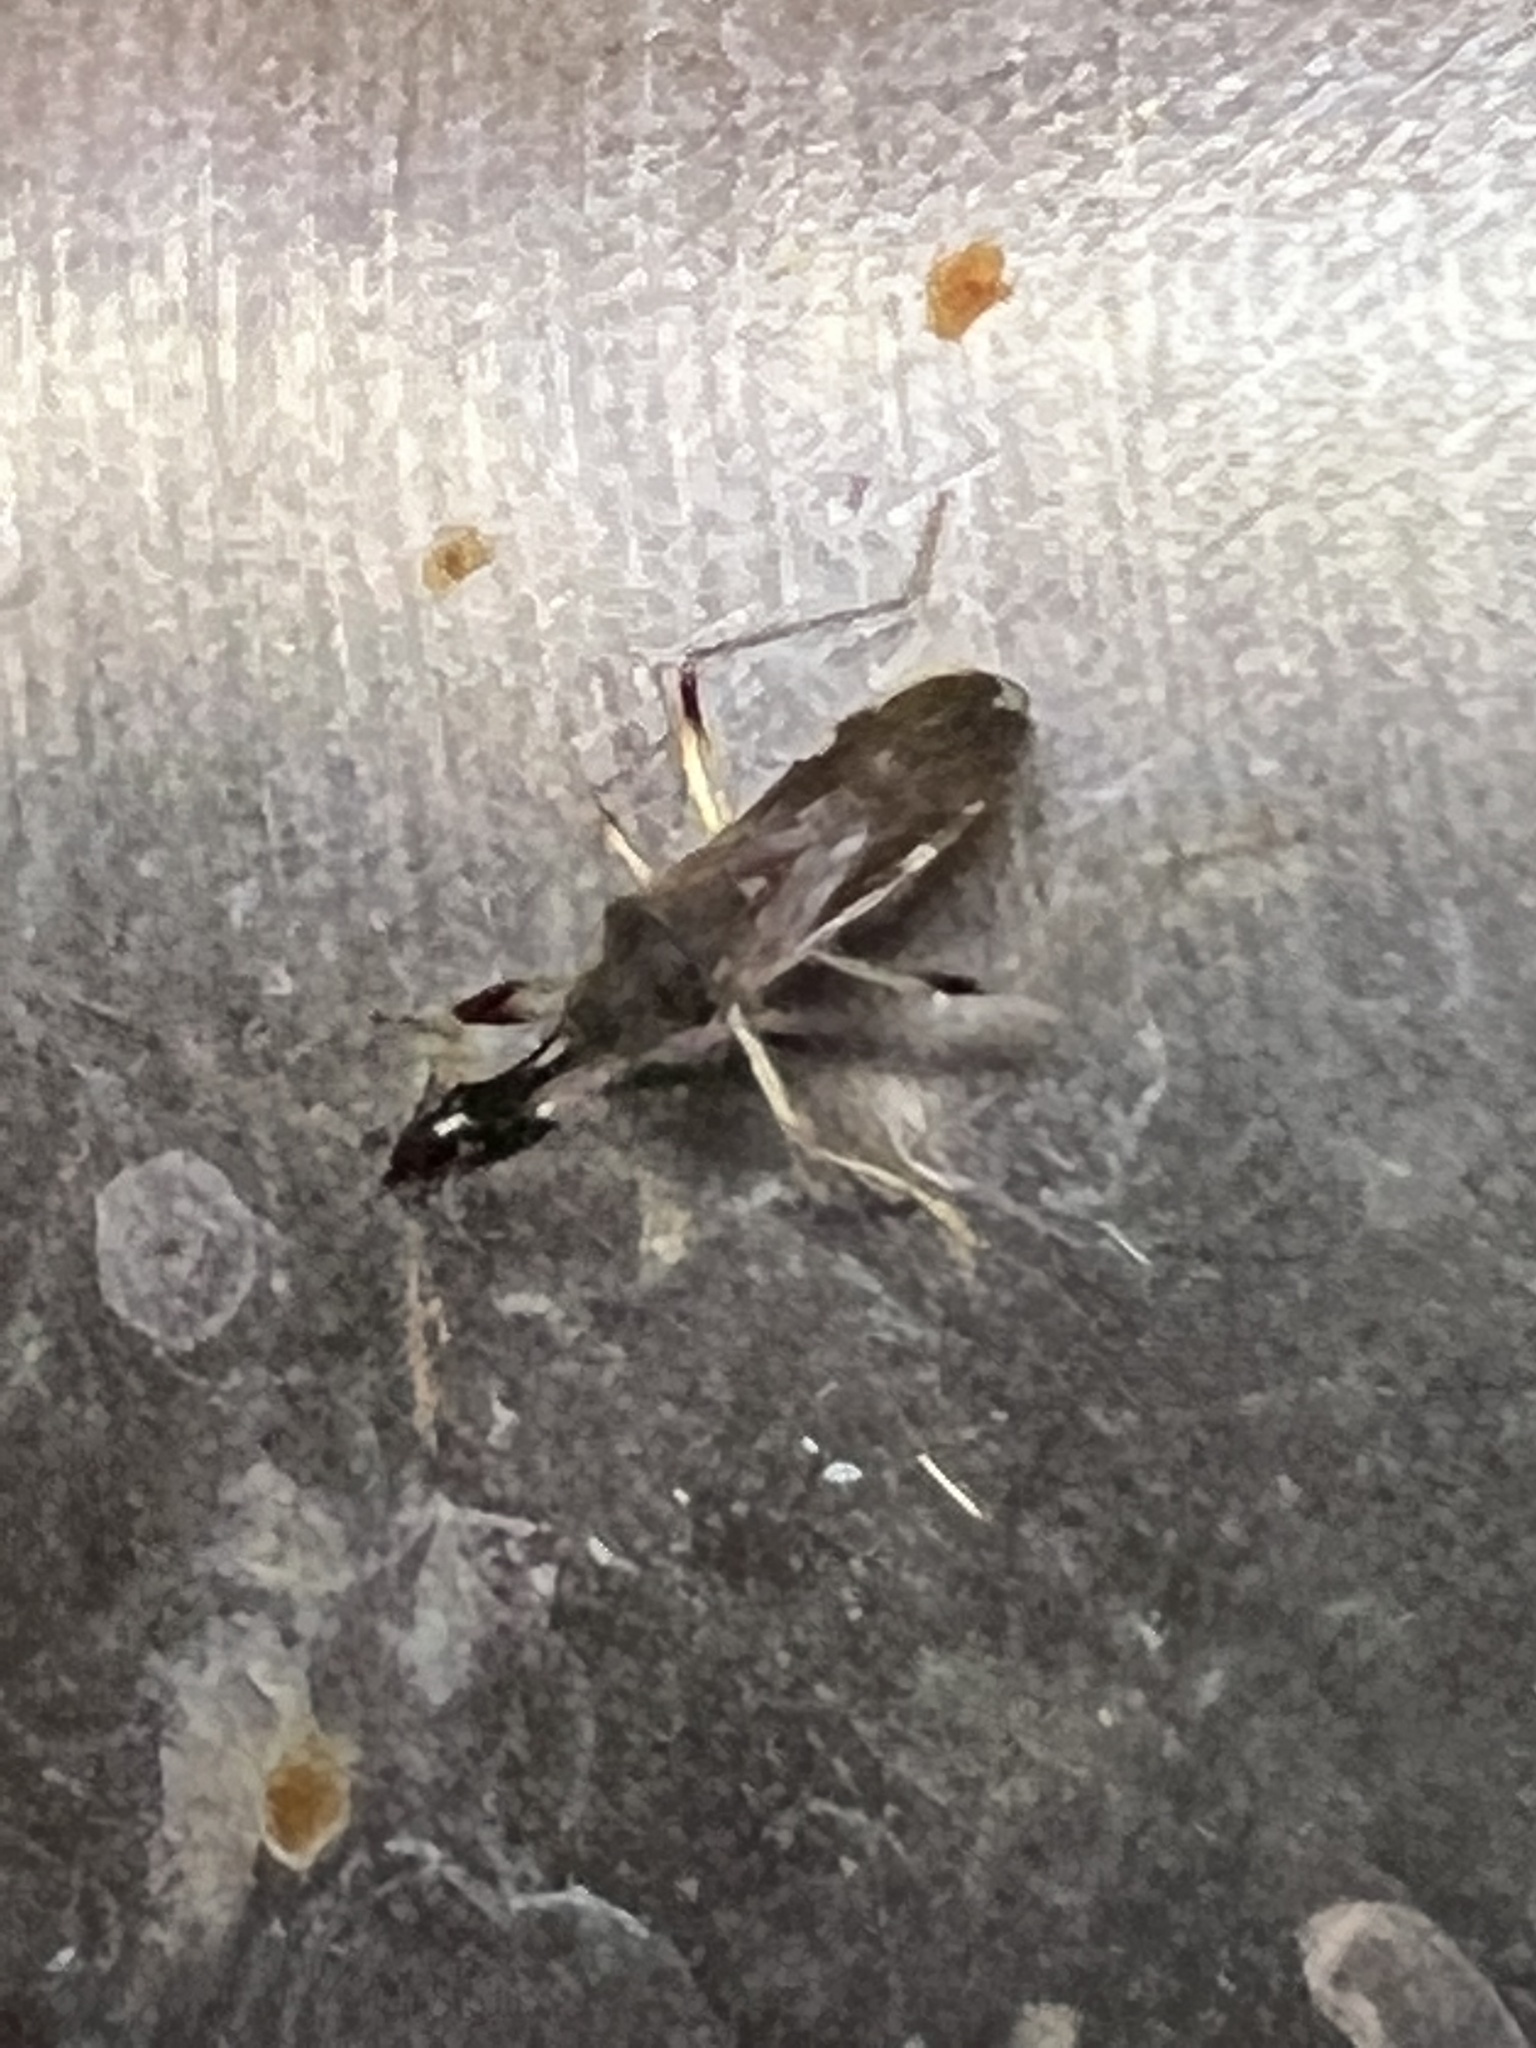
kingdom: Animalia
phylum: Arthropoda
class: Insecta
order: Hemiptera
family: Rhyparochromidae
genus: Myodocha
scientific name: Myodocha serripes
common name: Long-necked seed bug
